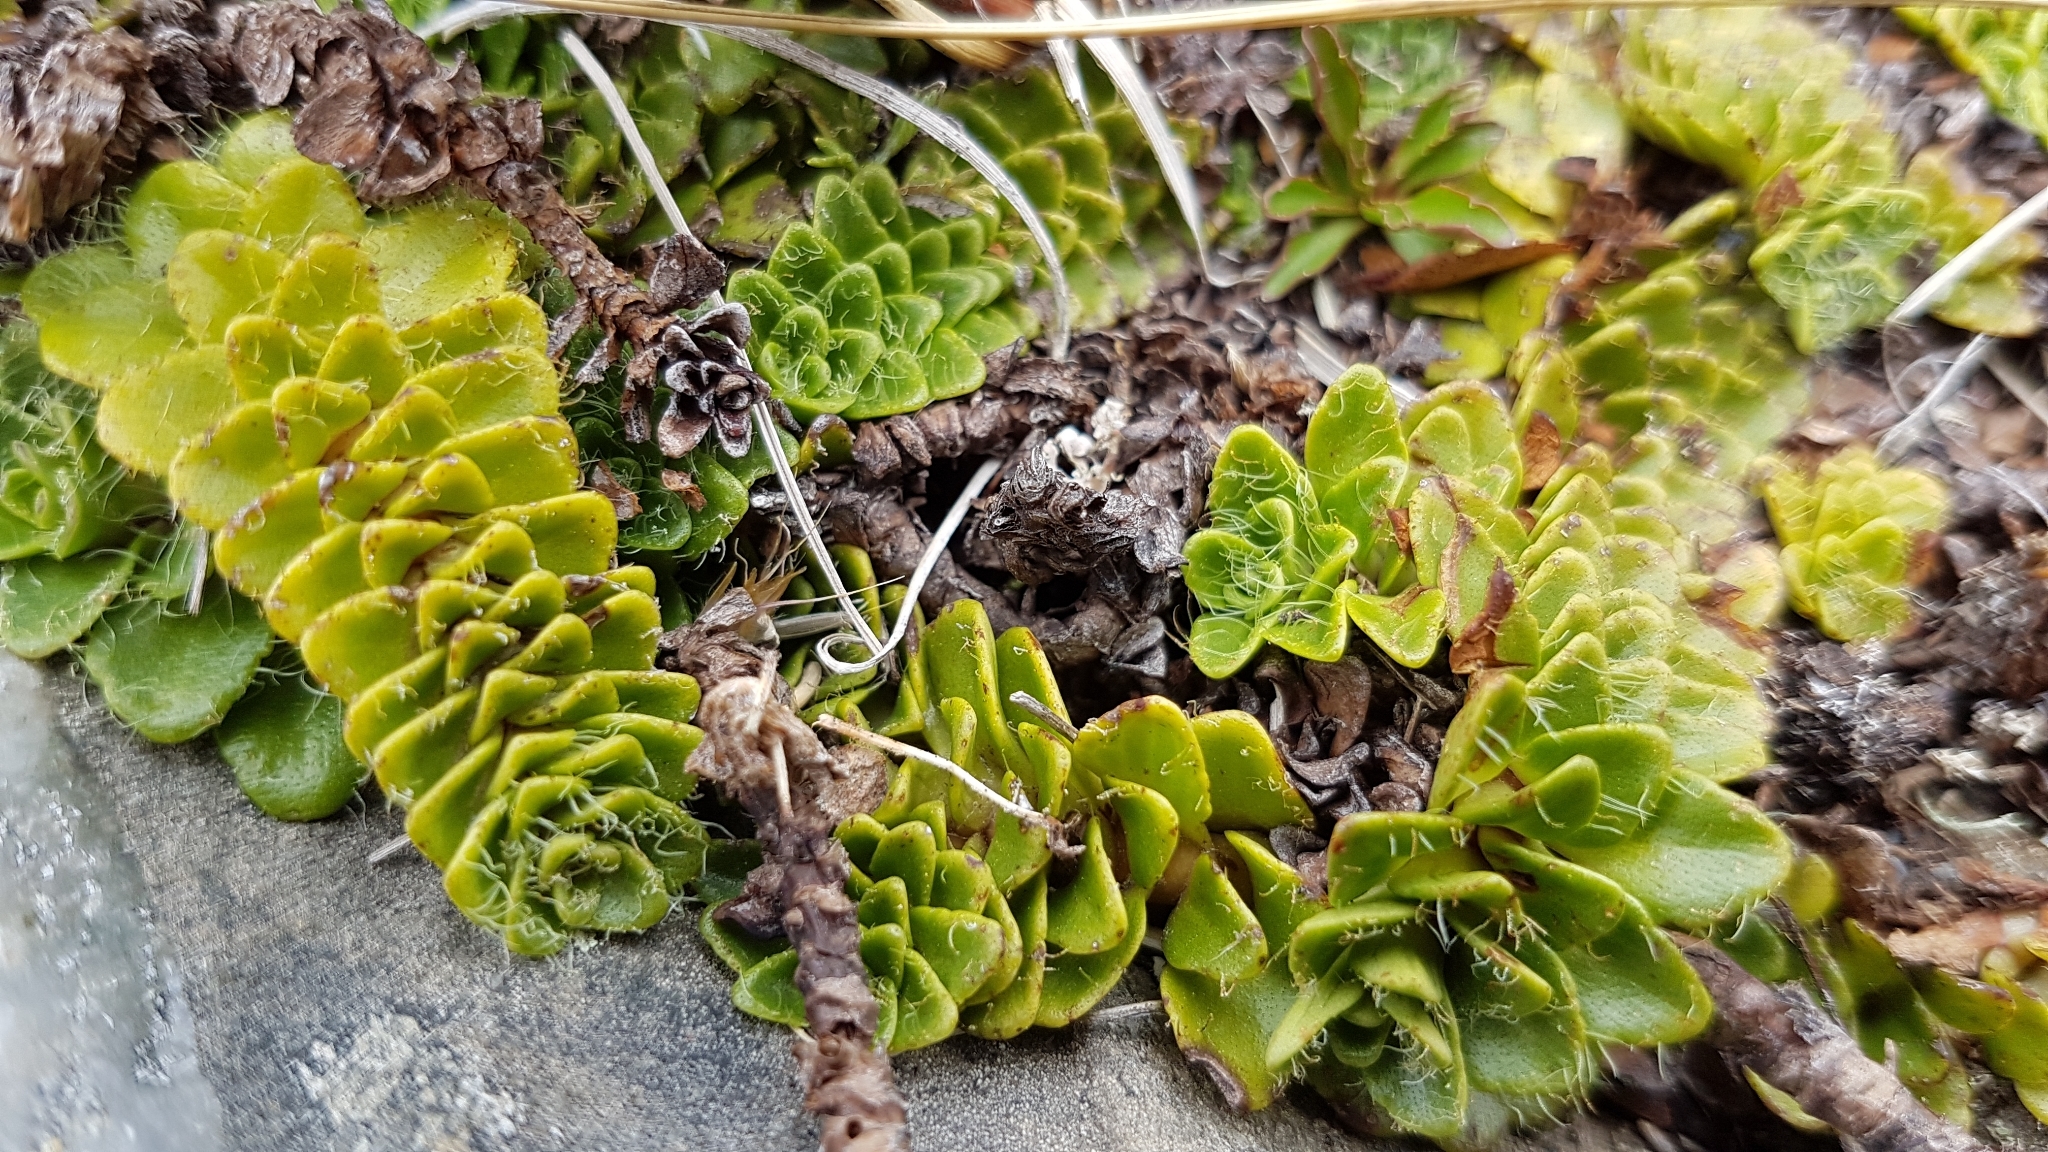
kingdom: Plantae
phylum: Tracheophyta
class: Magnoliopsida
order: Lamiales
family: Plantaginaceae
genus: Ourisia
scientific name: Ourisia glandulosa
